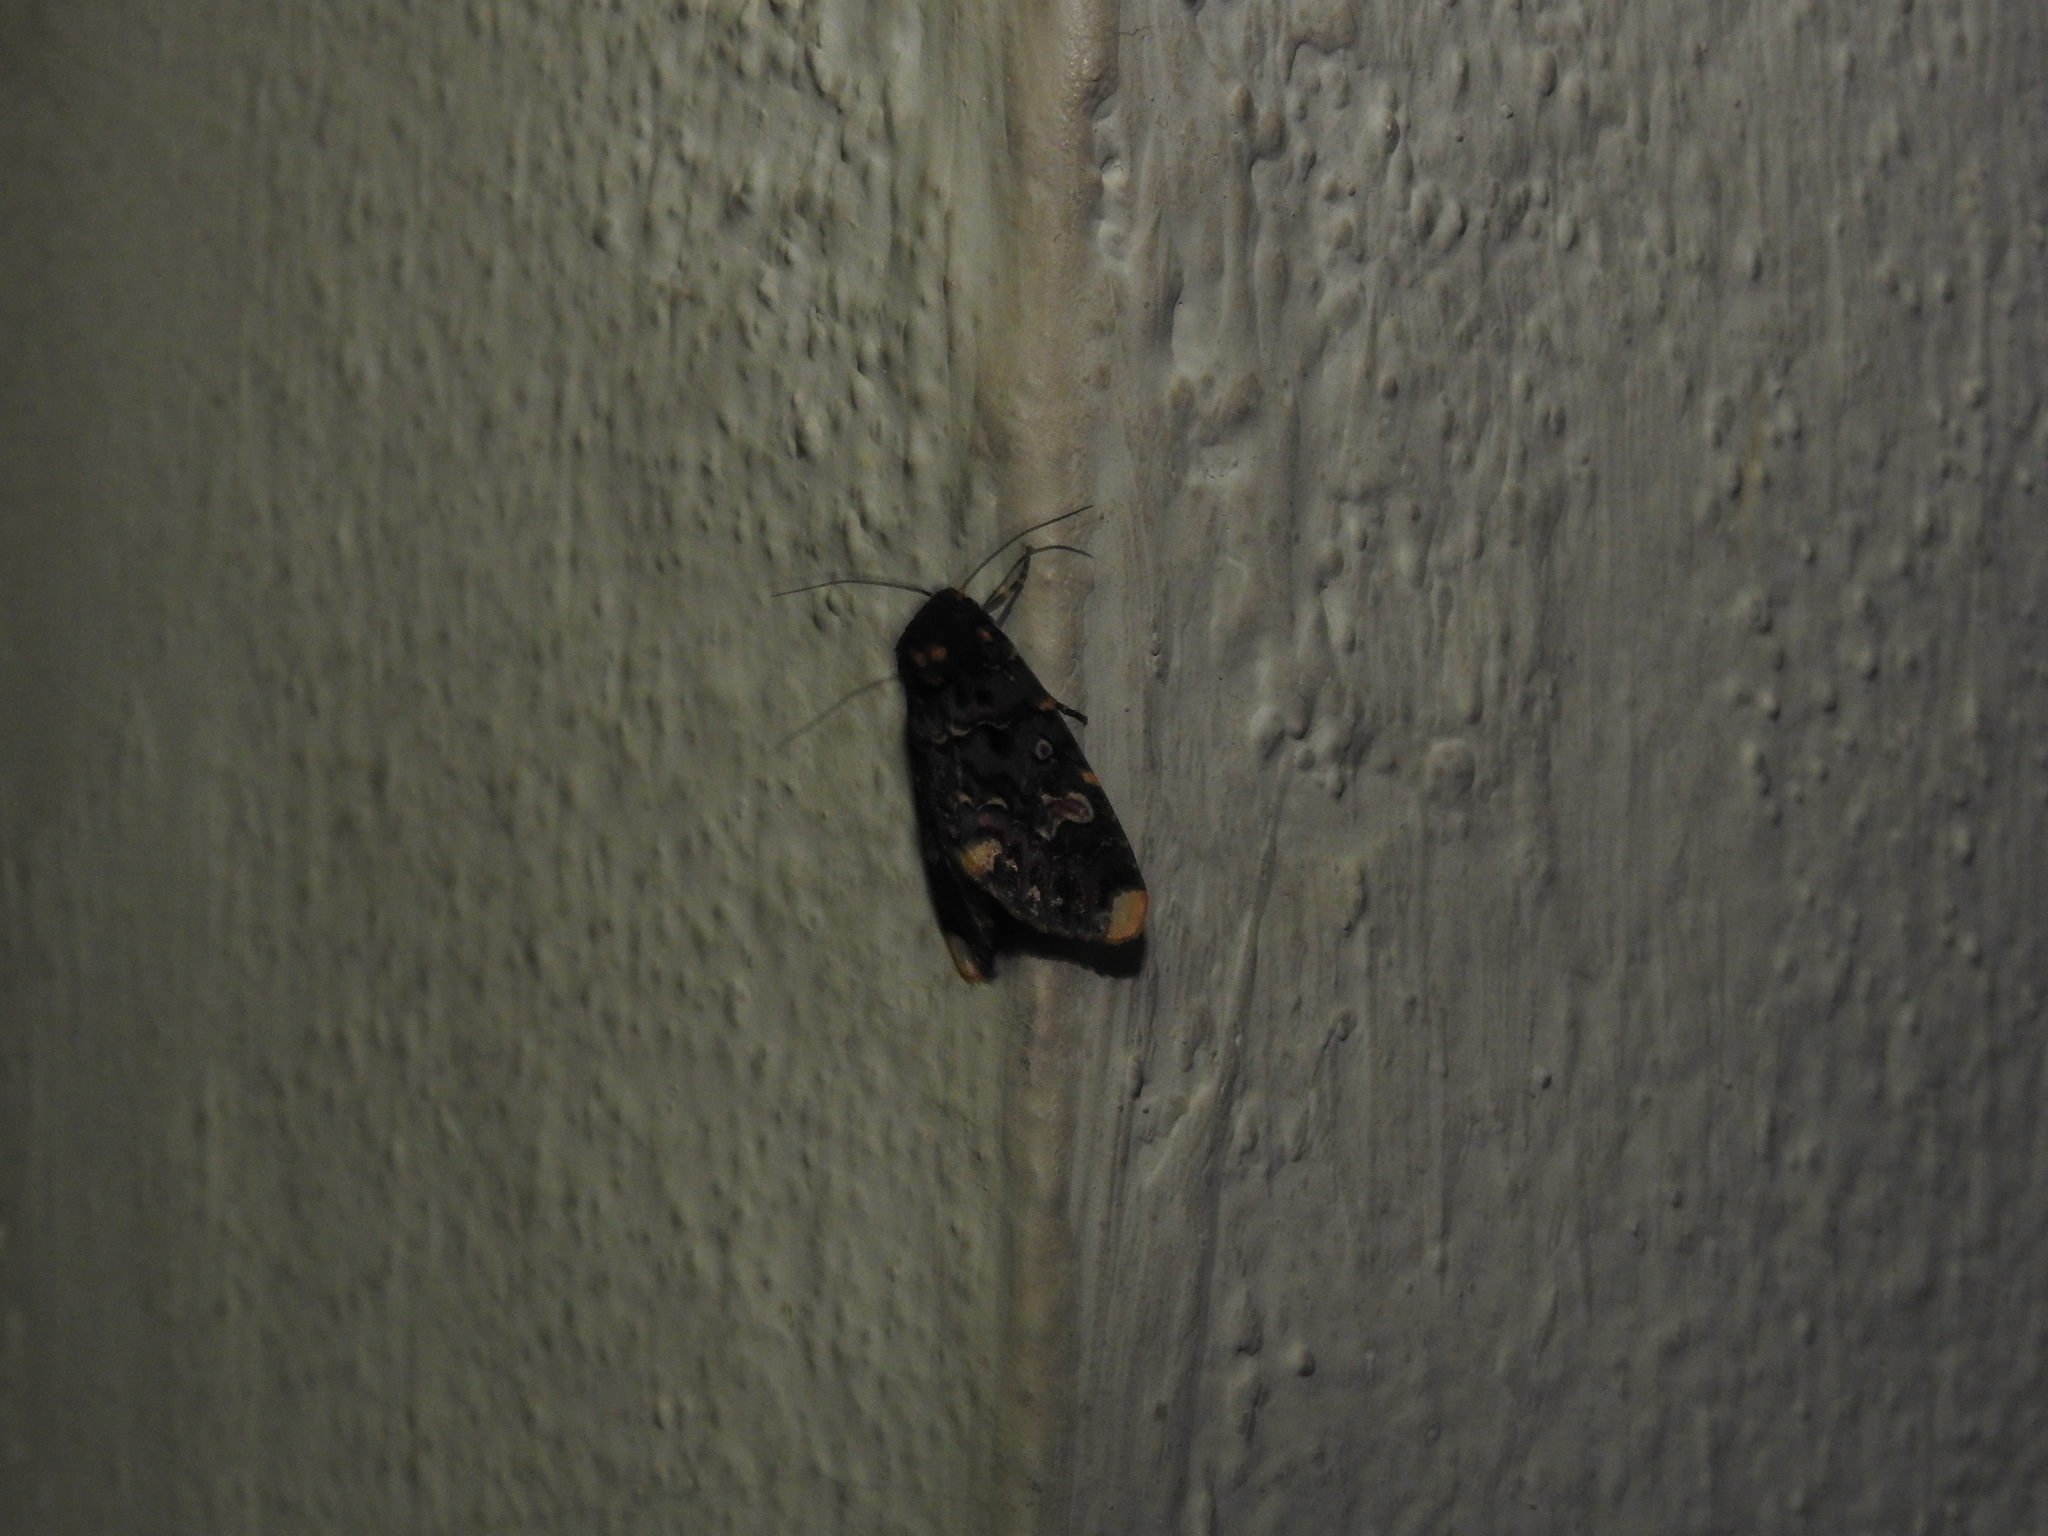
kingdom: Animalia
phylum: Arthropoda
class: Insecta
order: Lepidoptera
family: Noctuidae
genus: Polytela
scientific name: Polytela gloriosae
